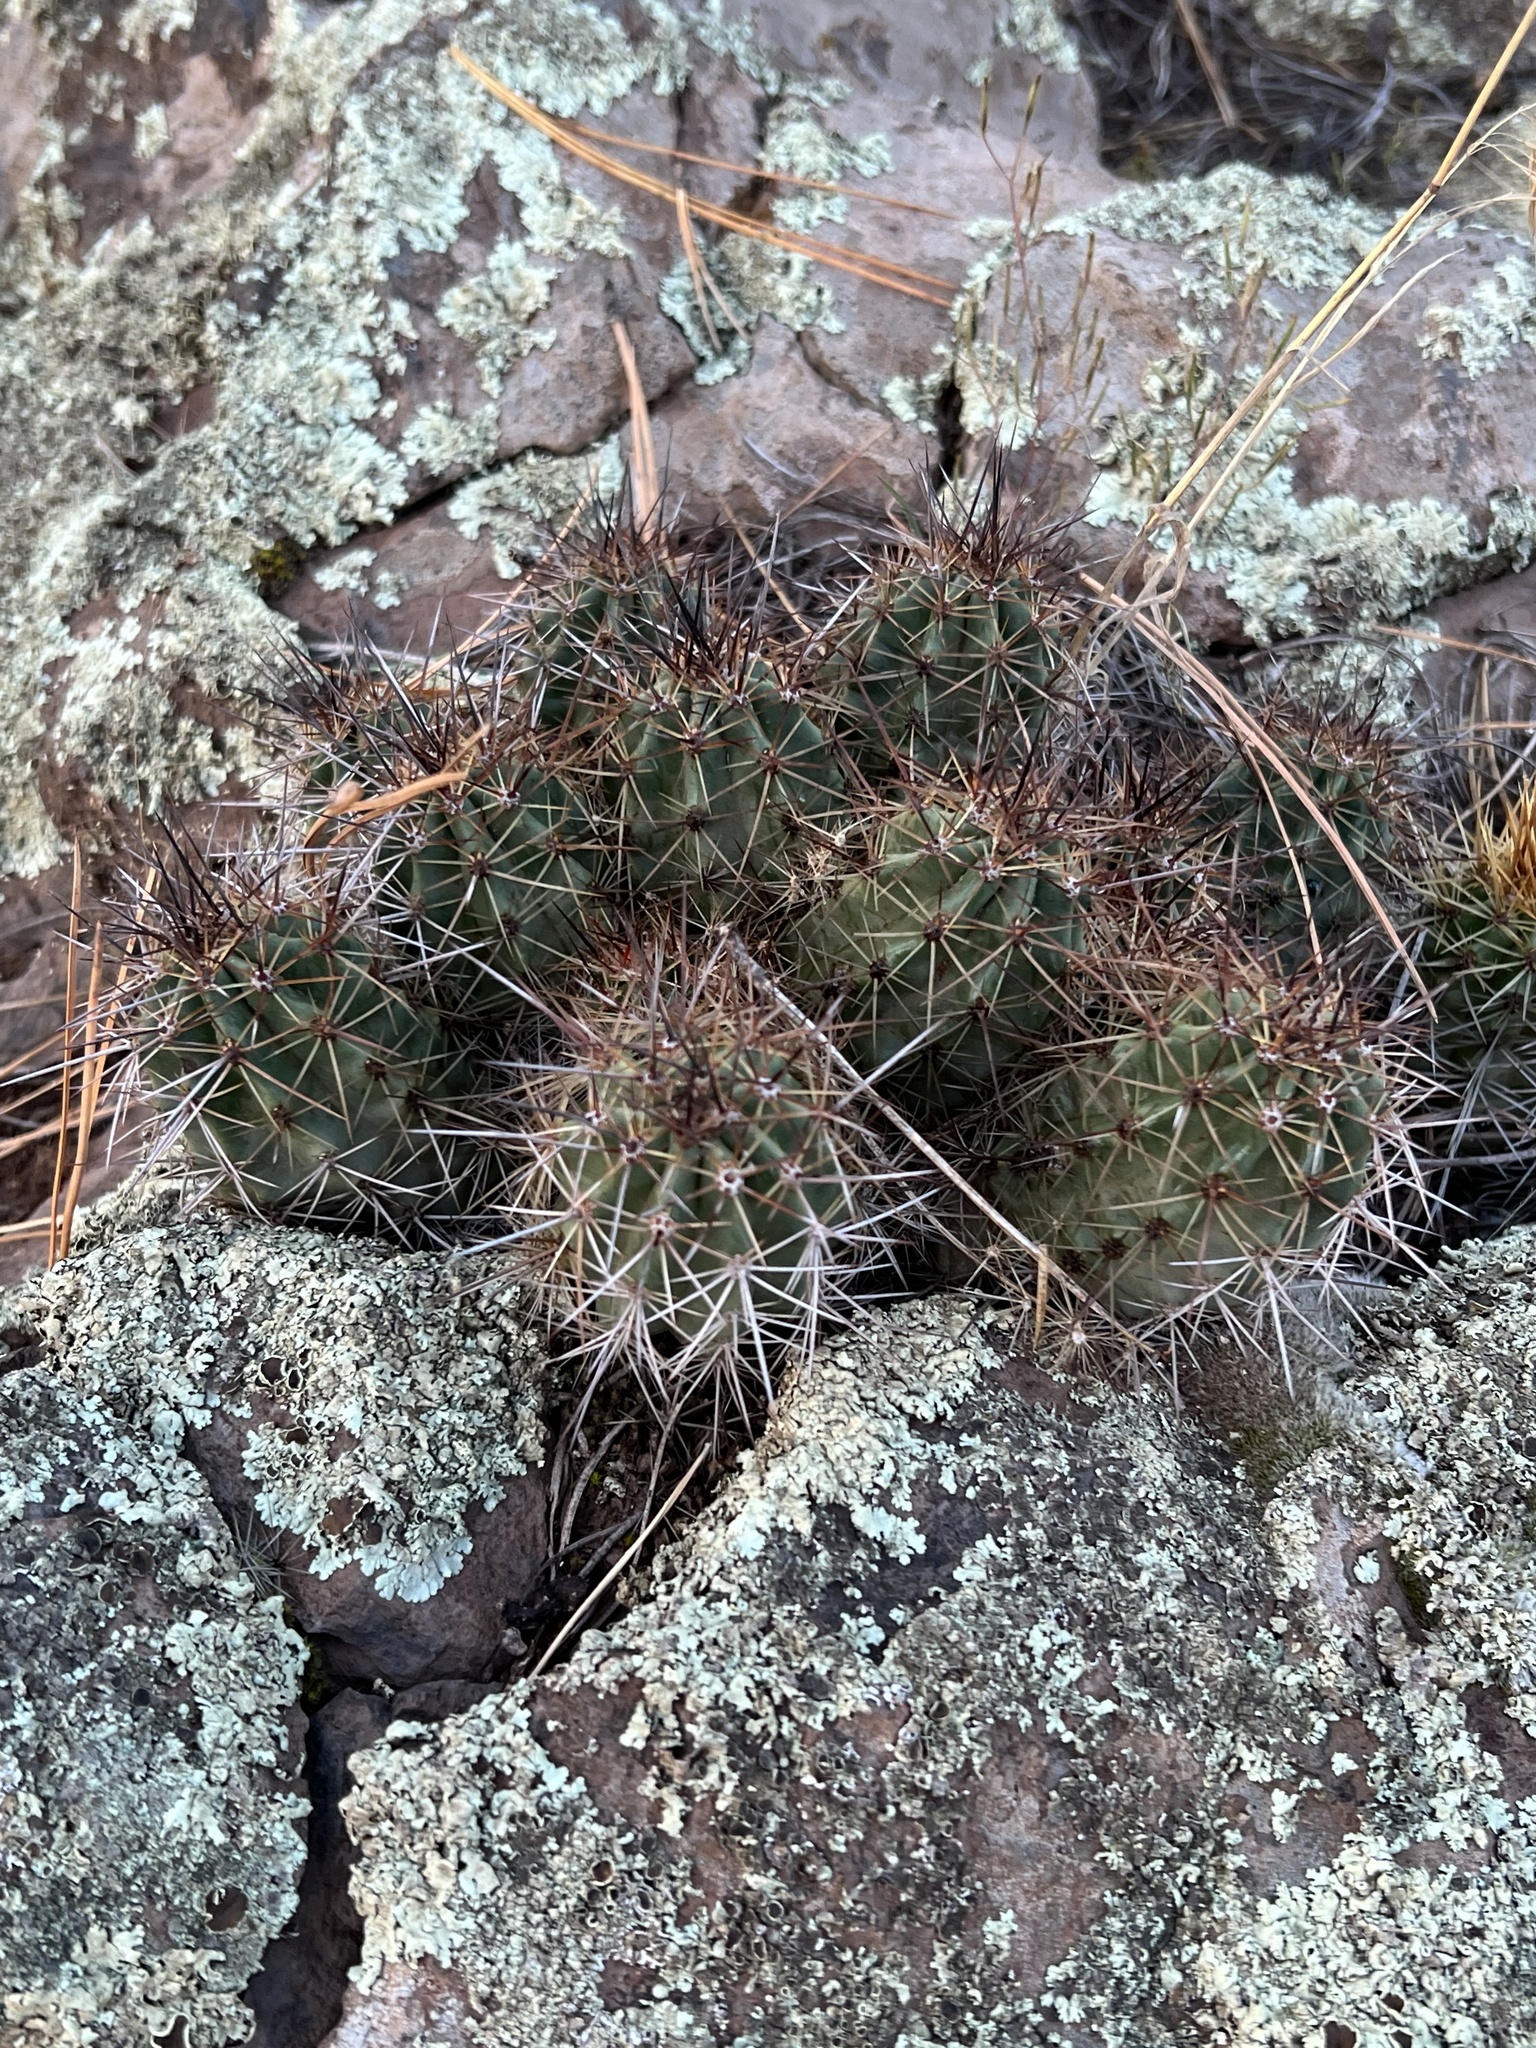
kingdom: Plantae
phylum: Tracheophyta
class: Magnoliopsida
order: Caryophyllales
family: Cactaceae
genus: Echinocereus
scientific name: Echinocereus bakeri
